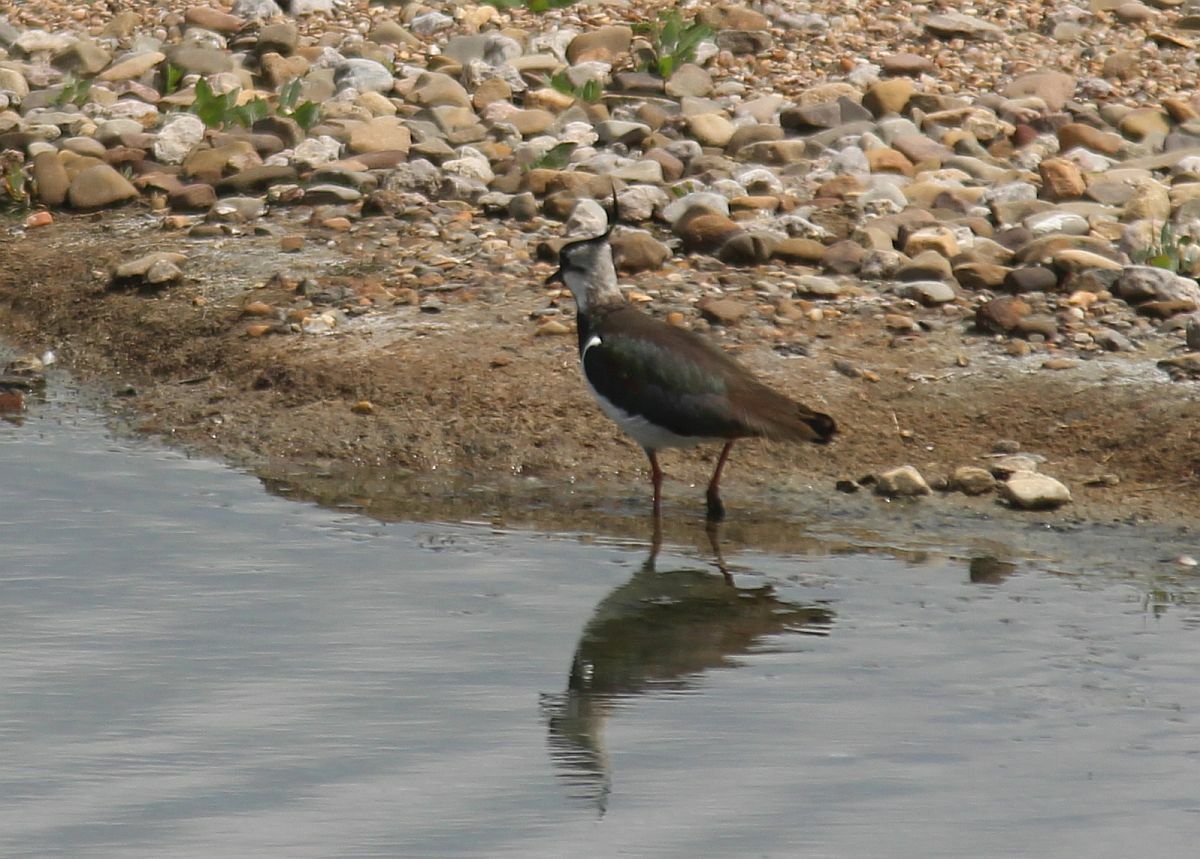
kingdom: Animalia
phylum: Chordata
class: Aves
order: Charadriiformes
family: Charadriidae
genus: Vanellus
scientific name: Vanellus vanellus
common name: Northern lapwing
